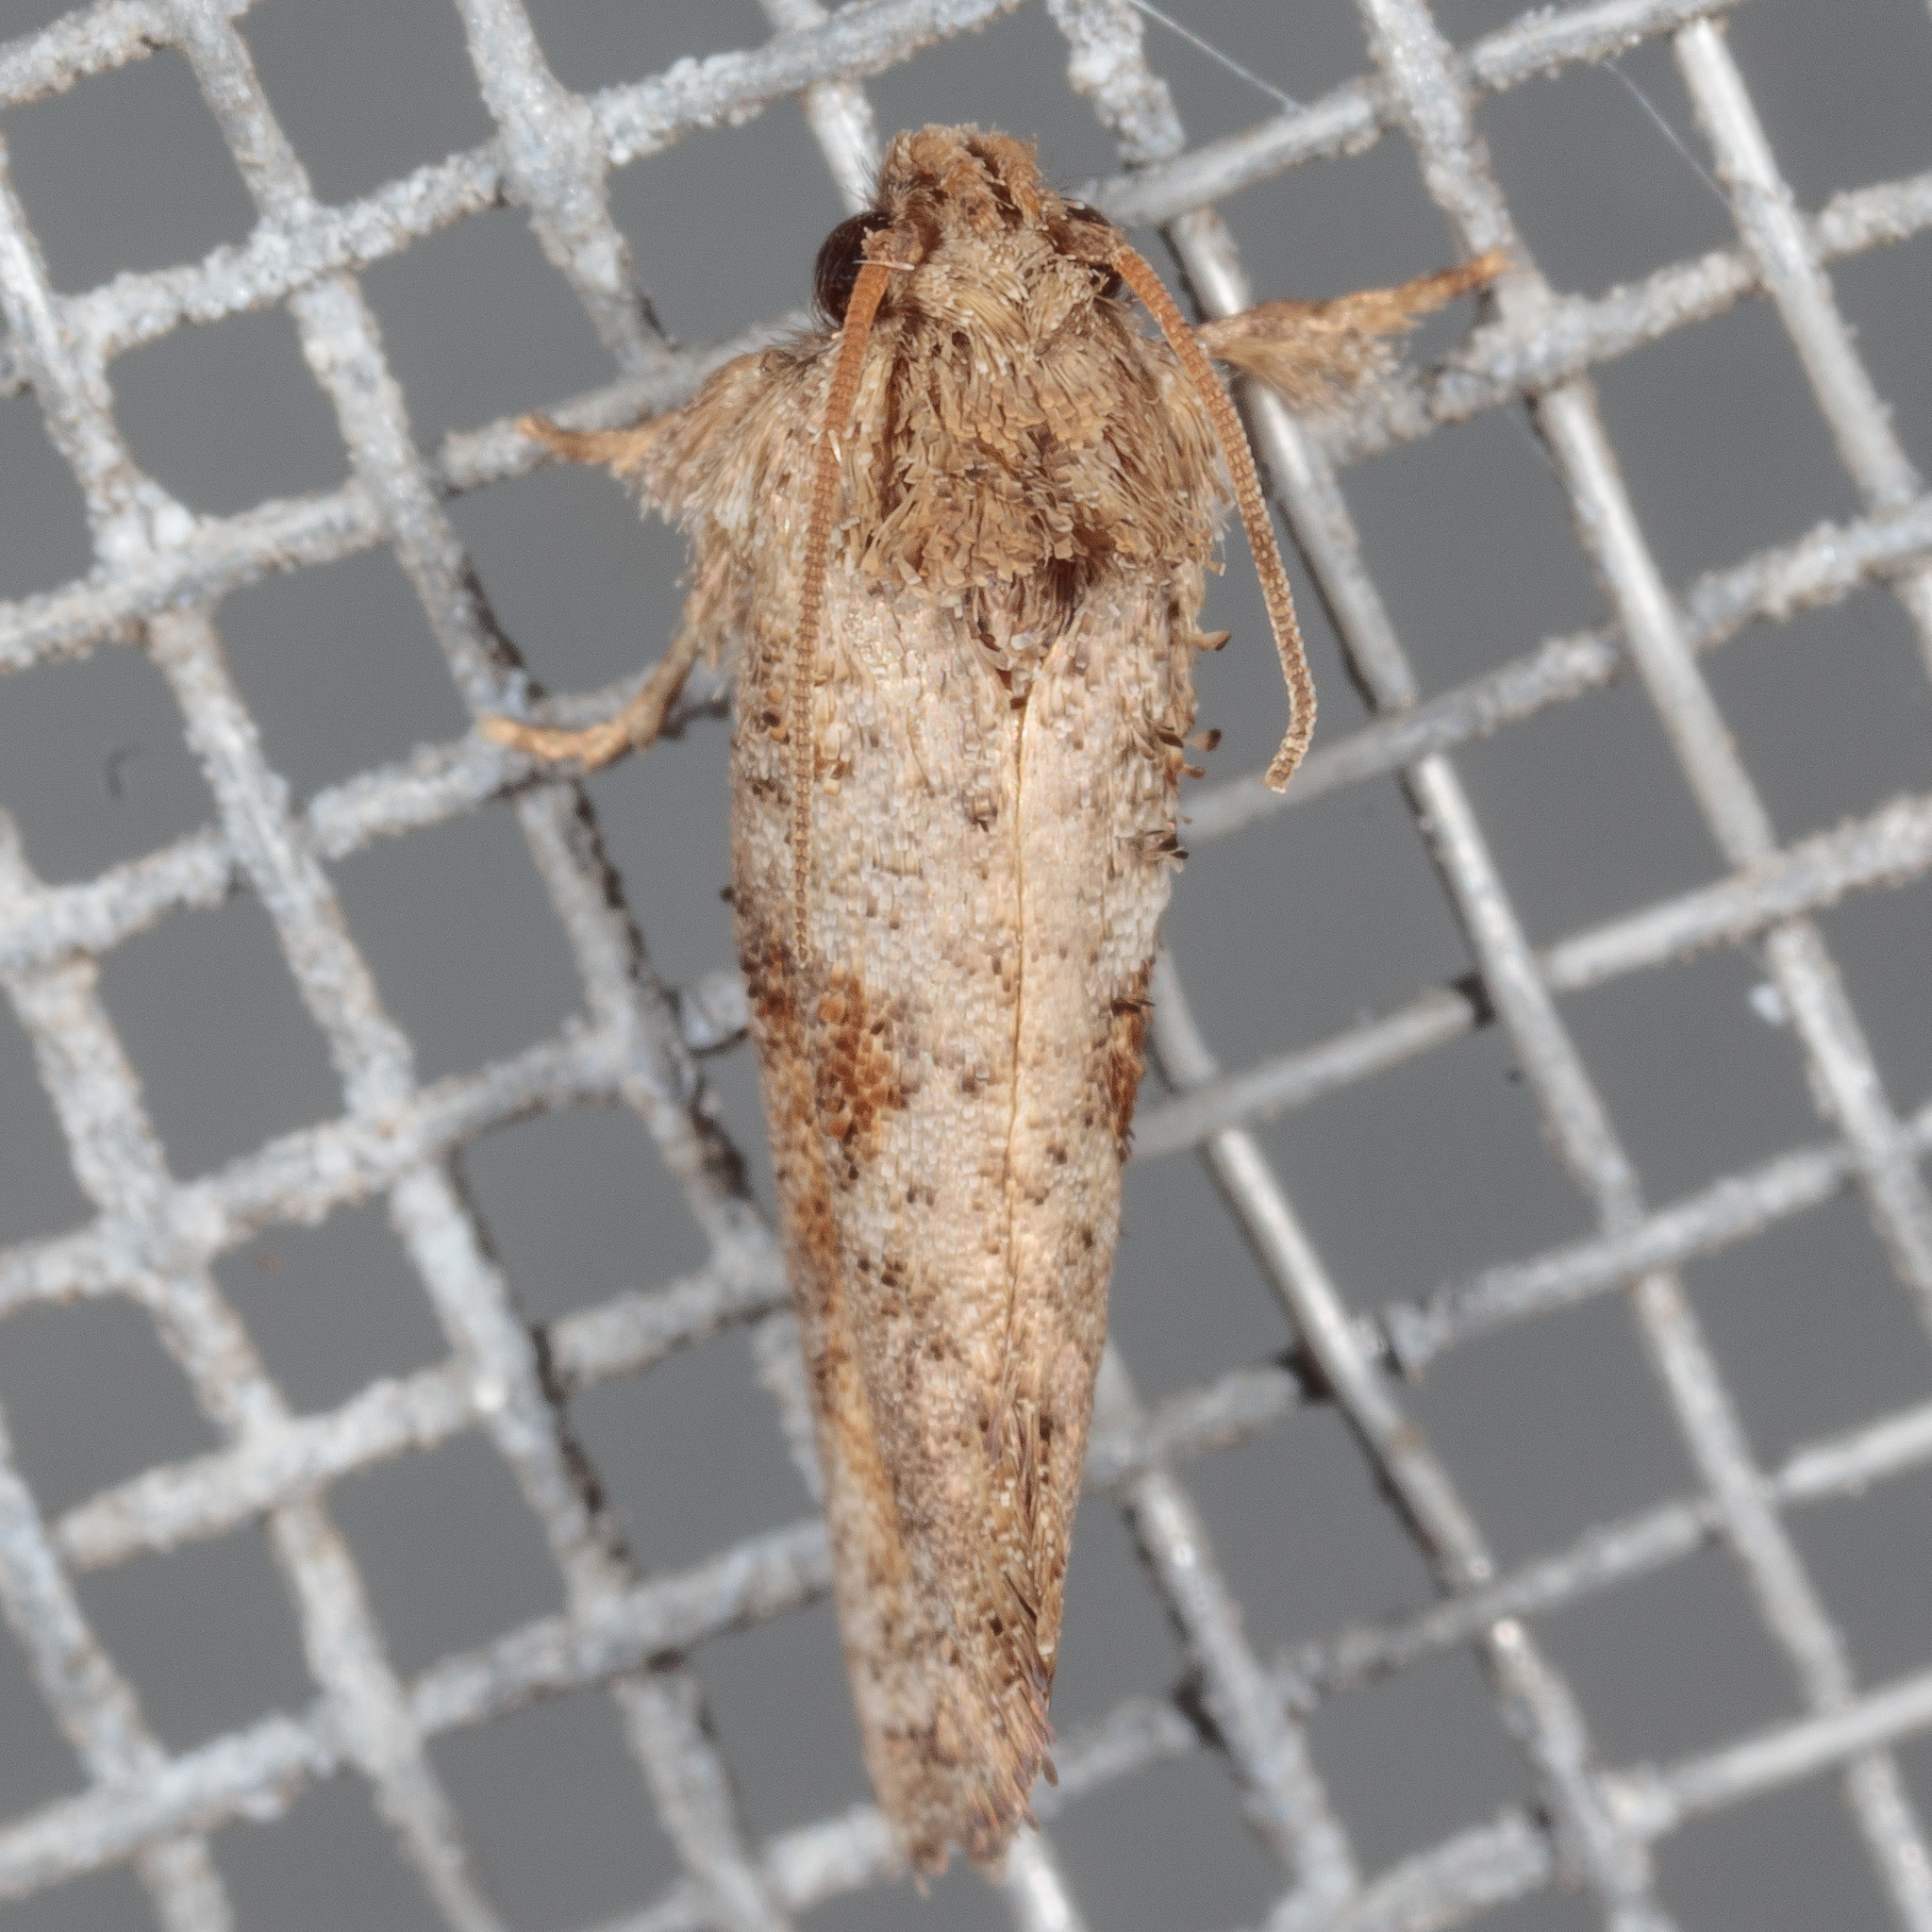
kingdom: Animalia
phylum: Arthropoda
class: Insecta
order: Lepidoptera
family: Tineidae
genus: Acrolophus
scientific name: Acrolophus piger
